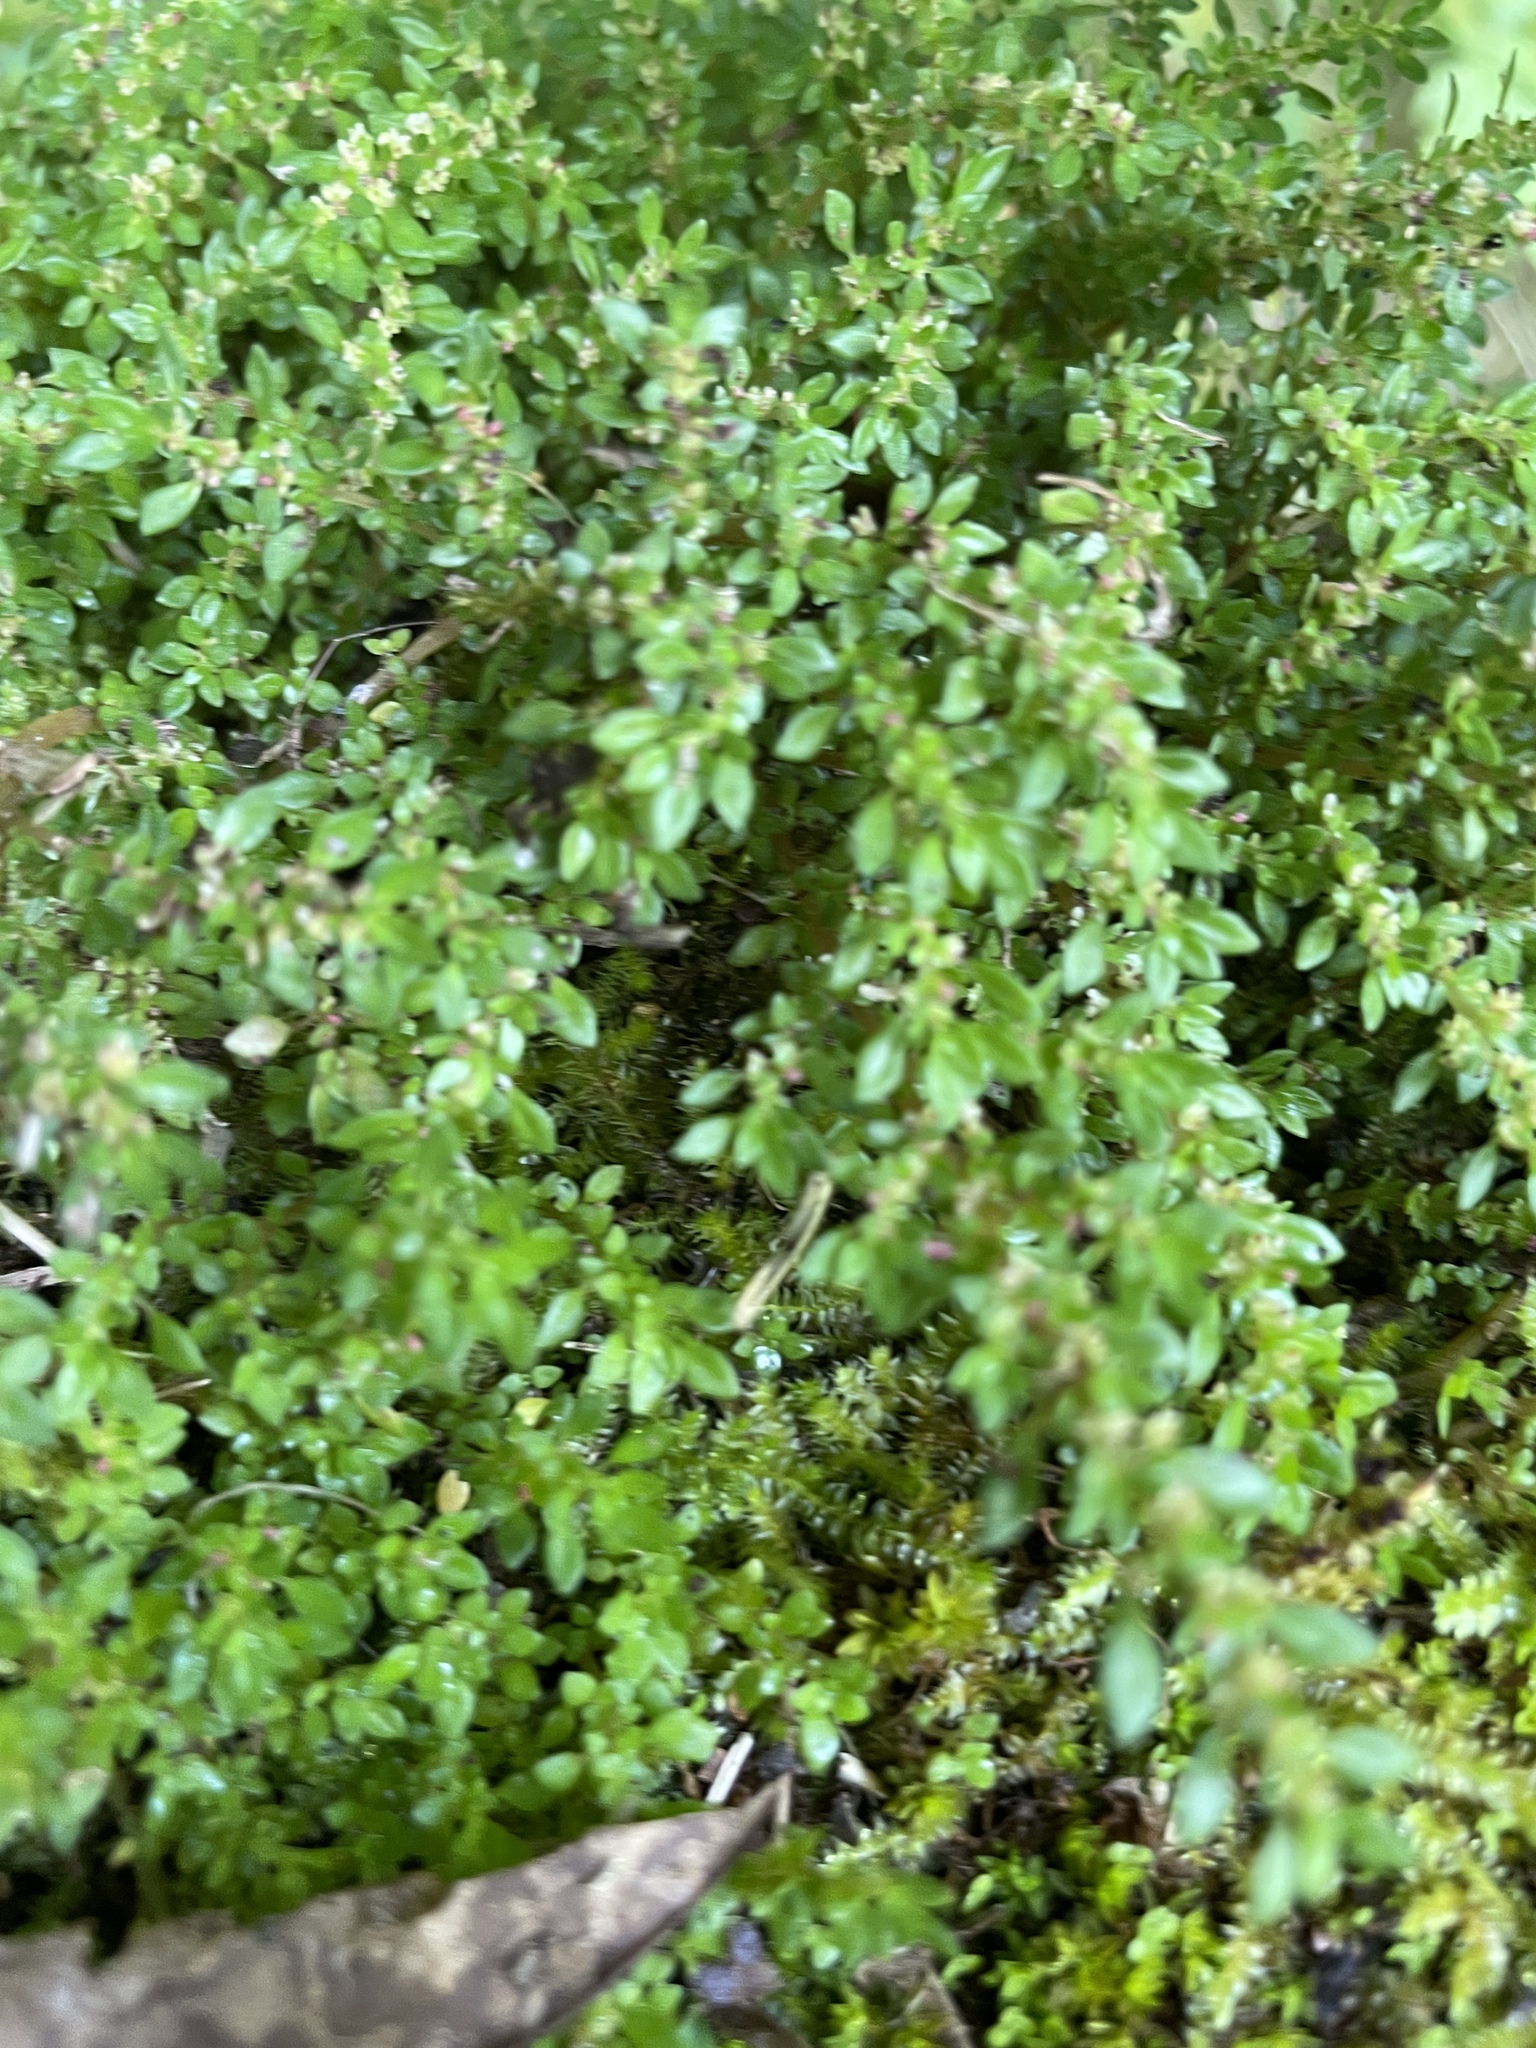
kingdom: Plantae
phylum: Tracheophyta
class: Magnoliopsida
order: Rosales
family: Urticaceae
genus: Pilea
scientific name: Pilea microphylla
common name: Artillery-plant
